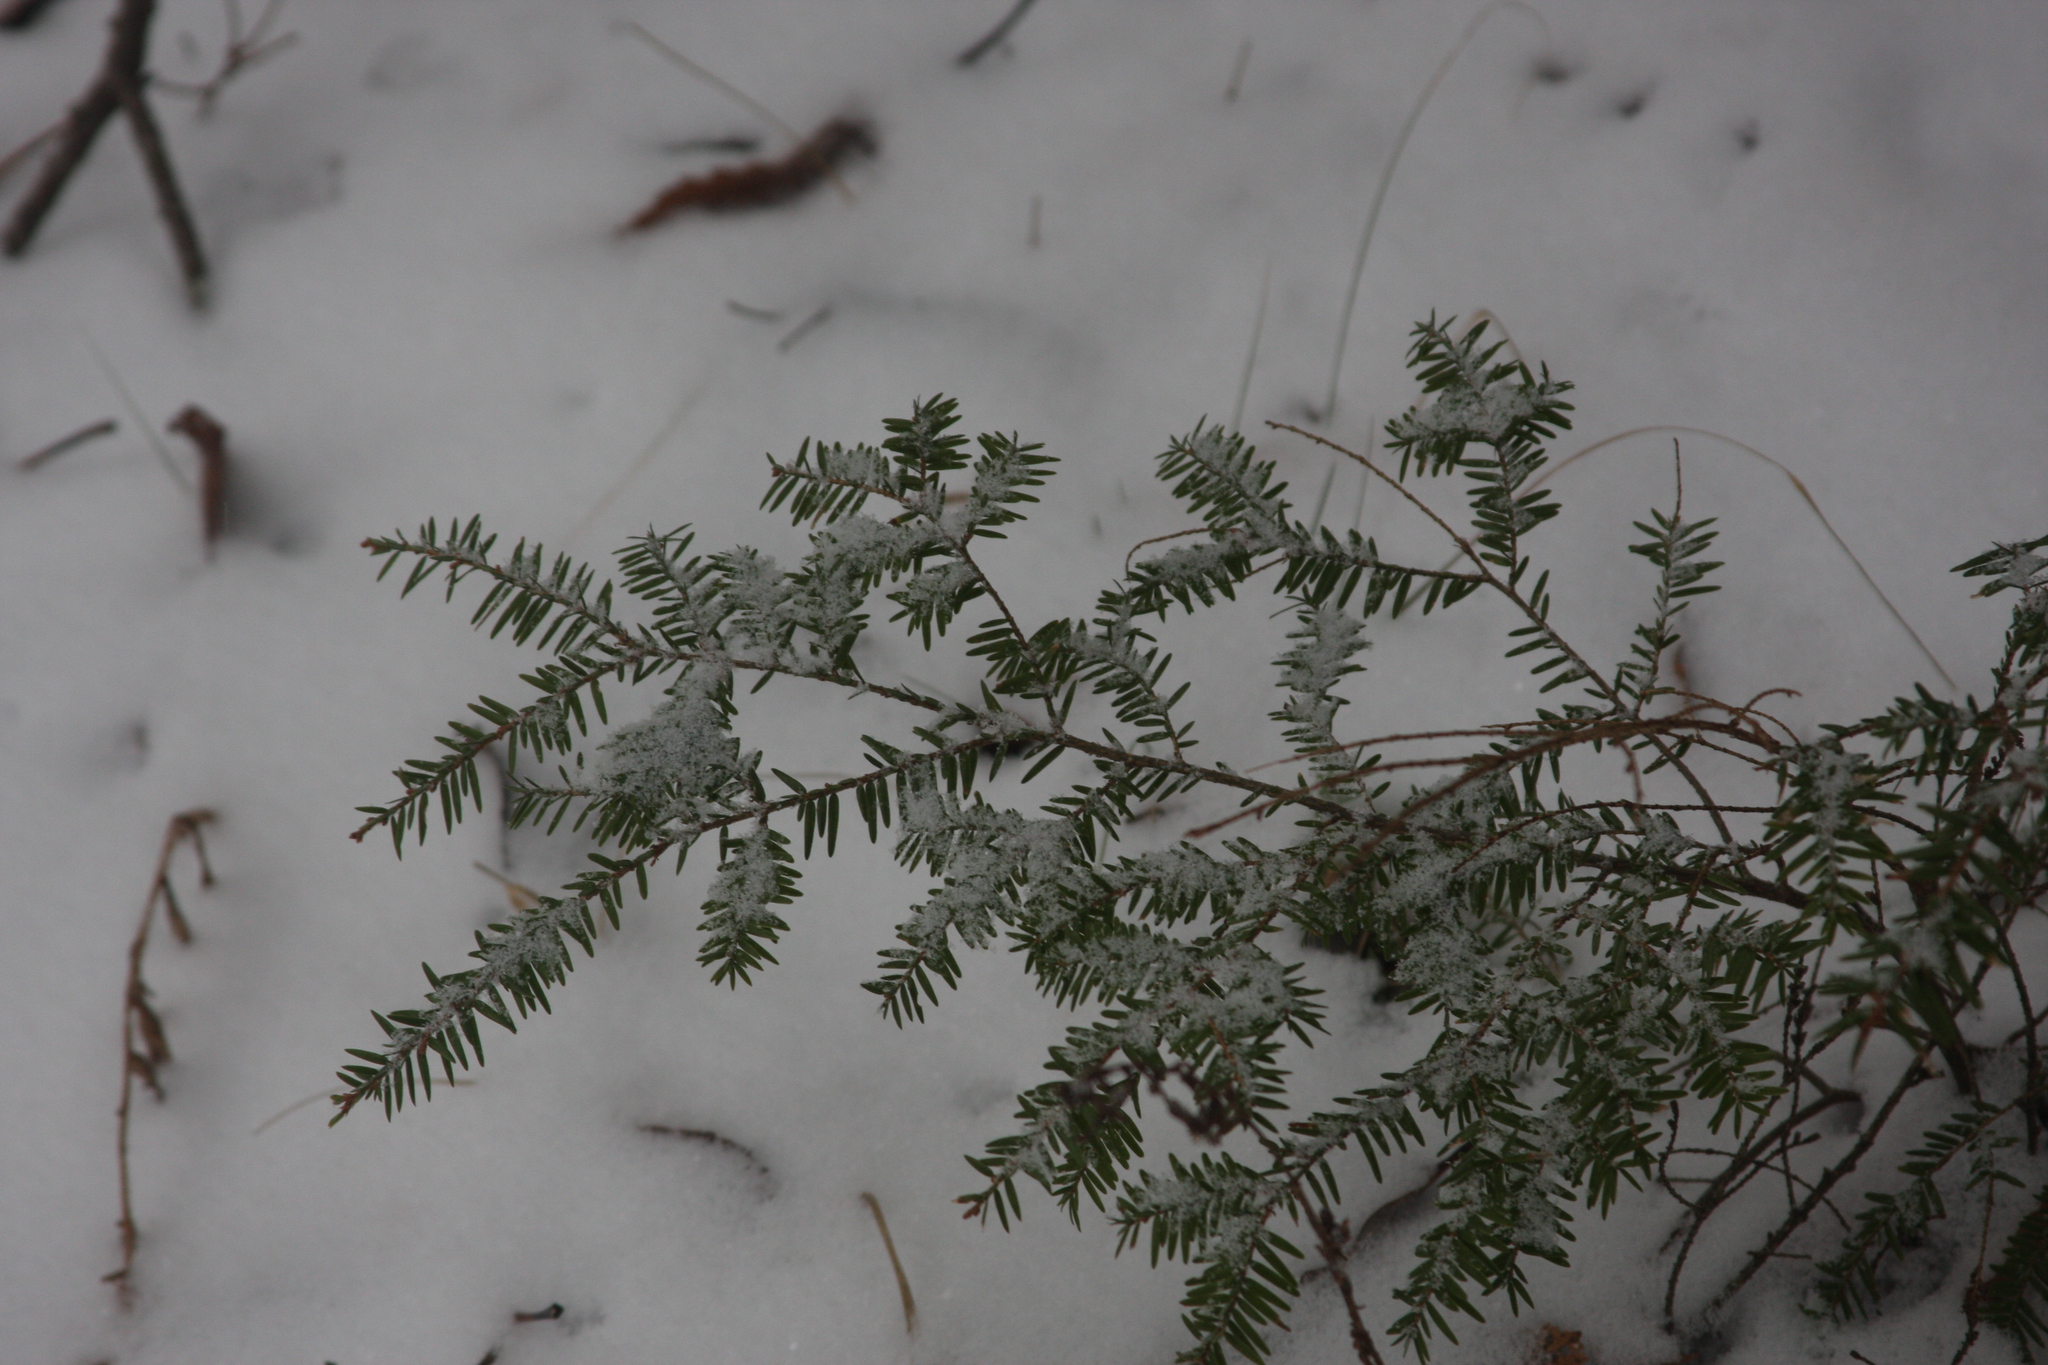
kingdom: Plantae
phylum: Tracheophyta
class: Pinopsida
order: Pinales
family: Pinaceae
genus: Tsuga
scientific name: Tsuga canadensis
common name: Eastern hemlock
